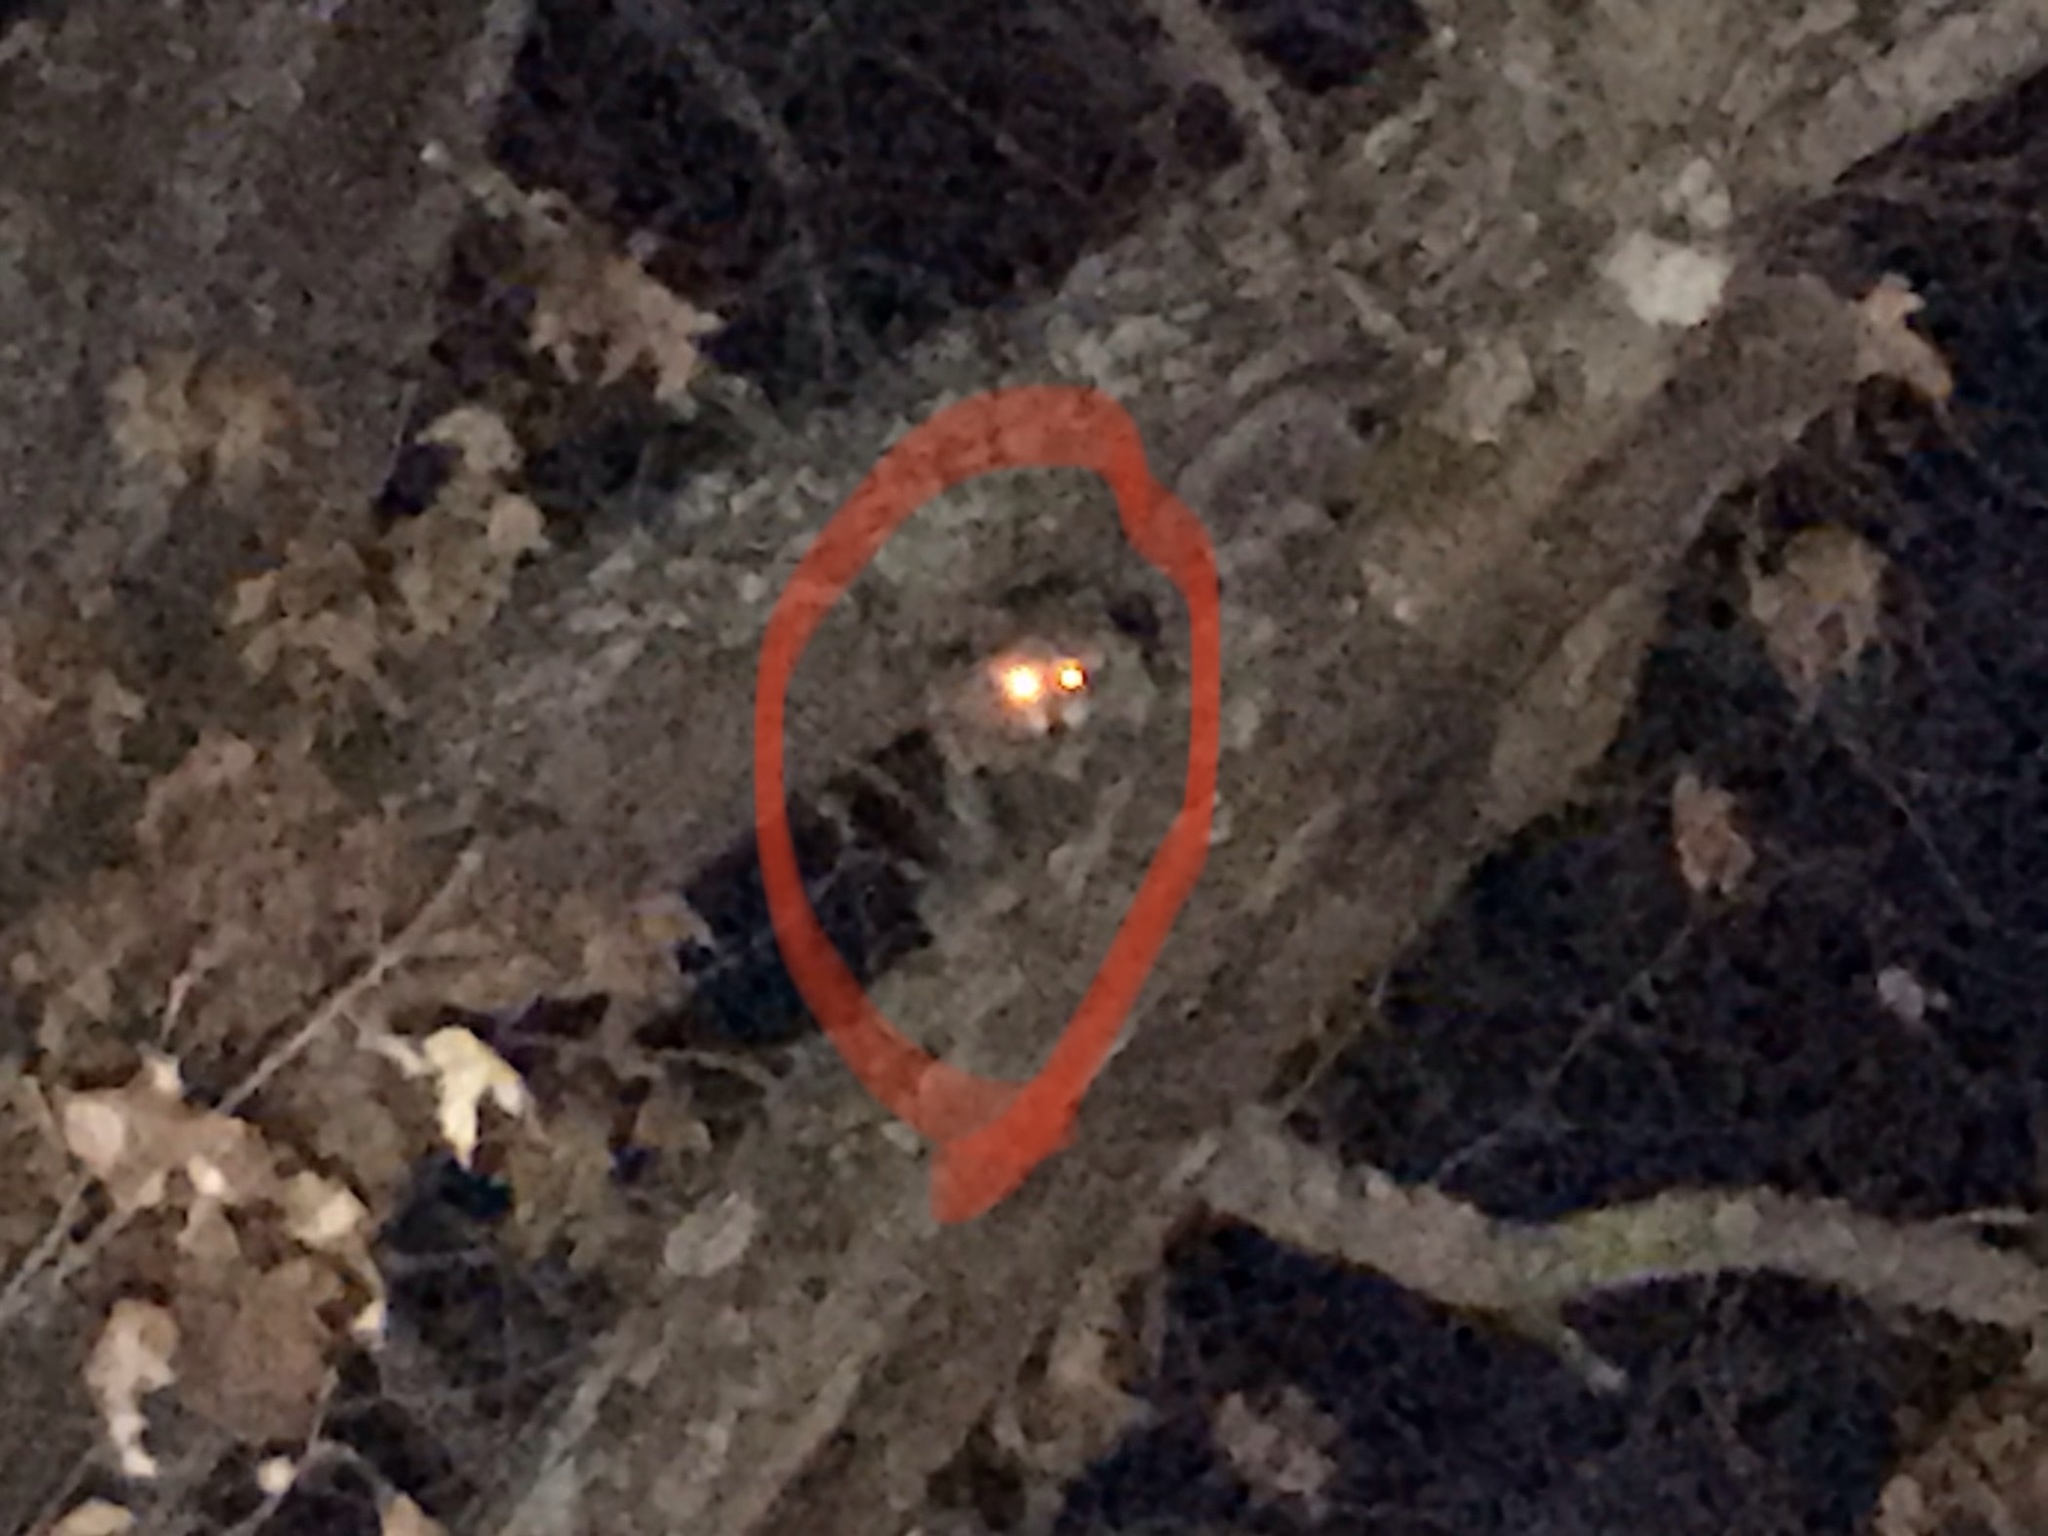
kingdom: Animalia
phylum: Chordata
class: Mammalia
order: Carnivora
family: Procyonidae
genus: Procyon
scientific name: Procyon lotor
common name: Raccoon
